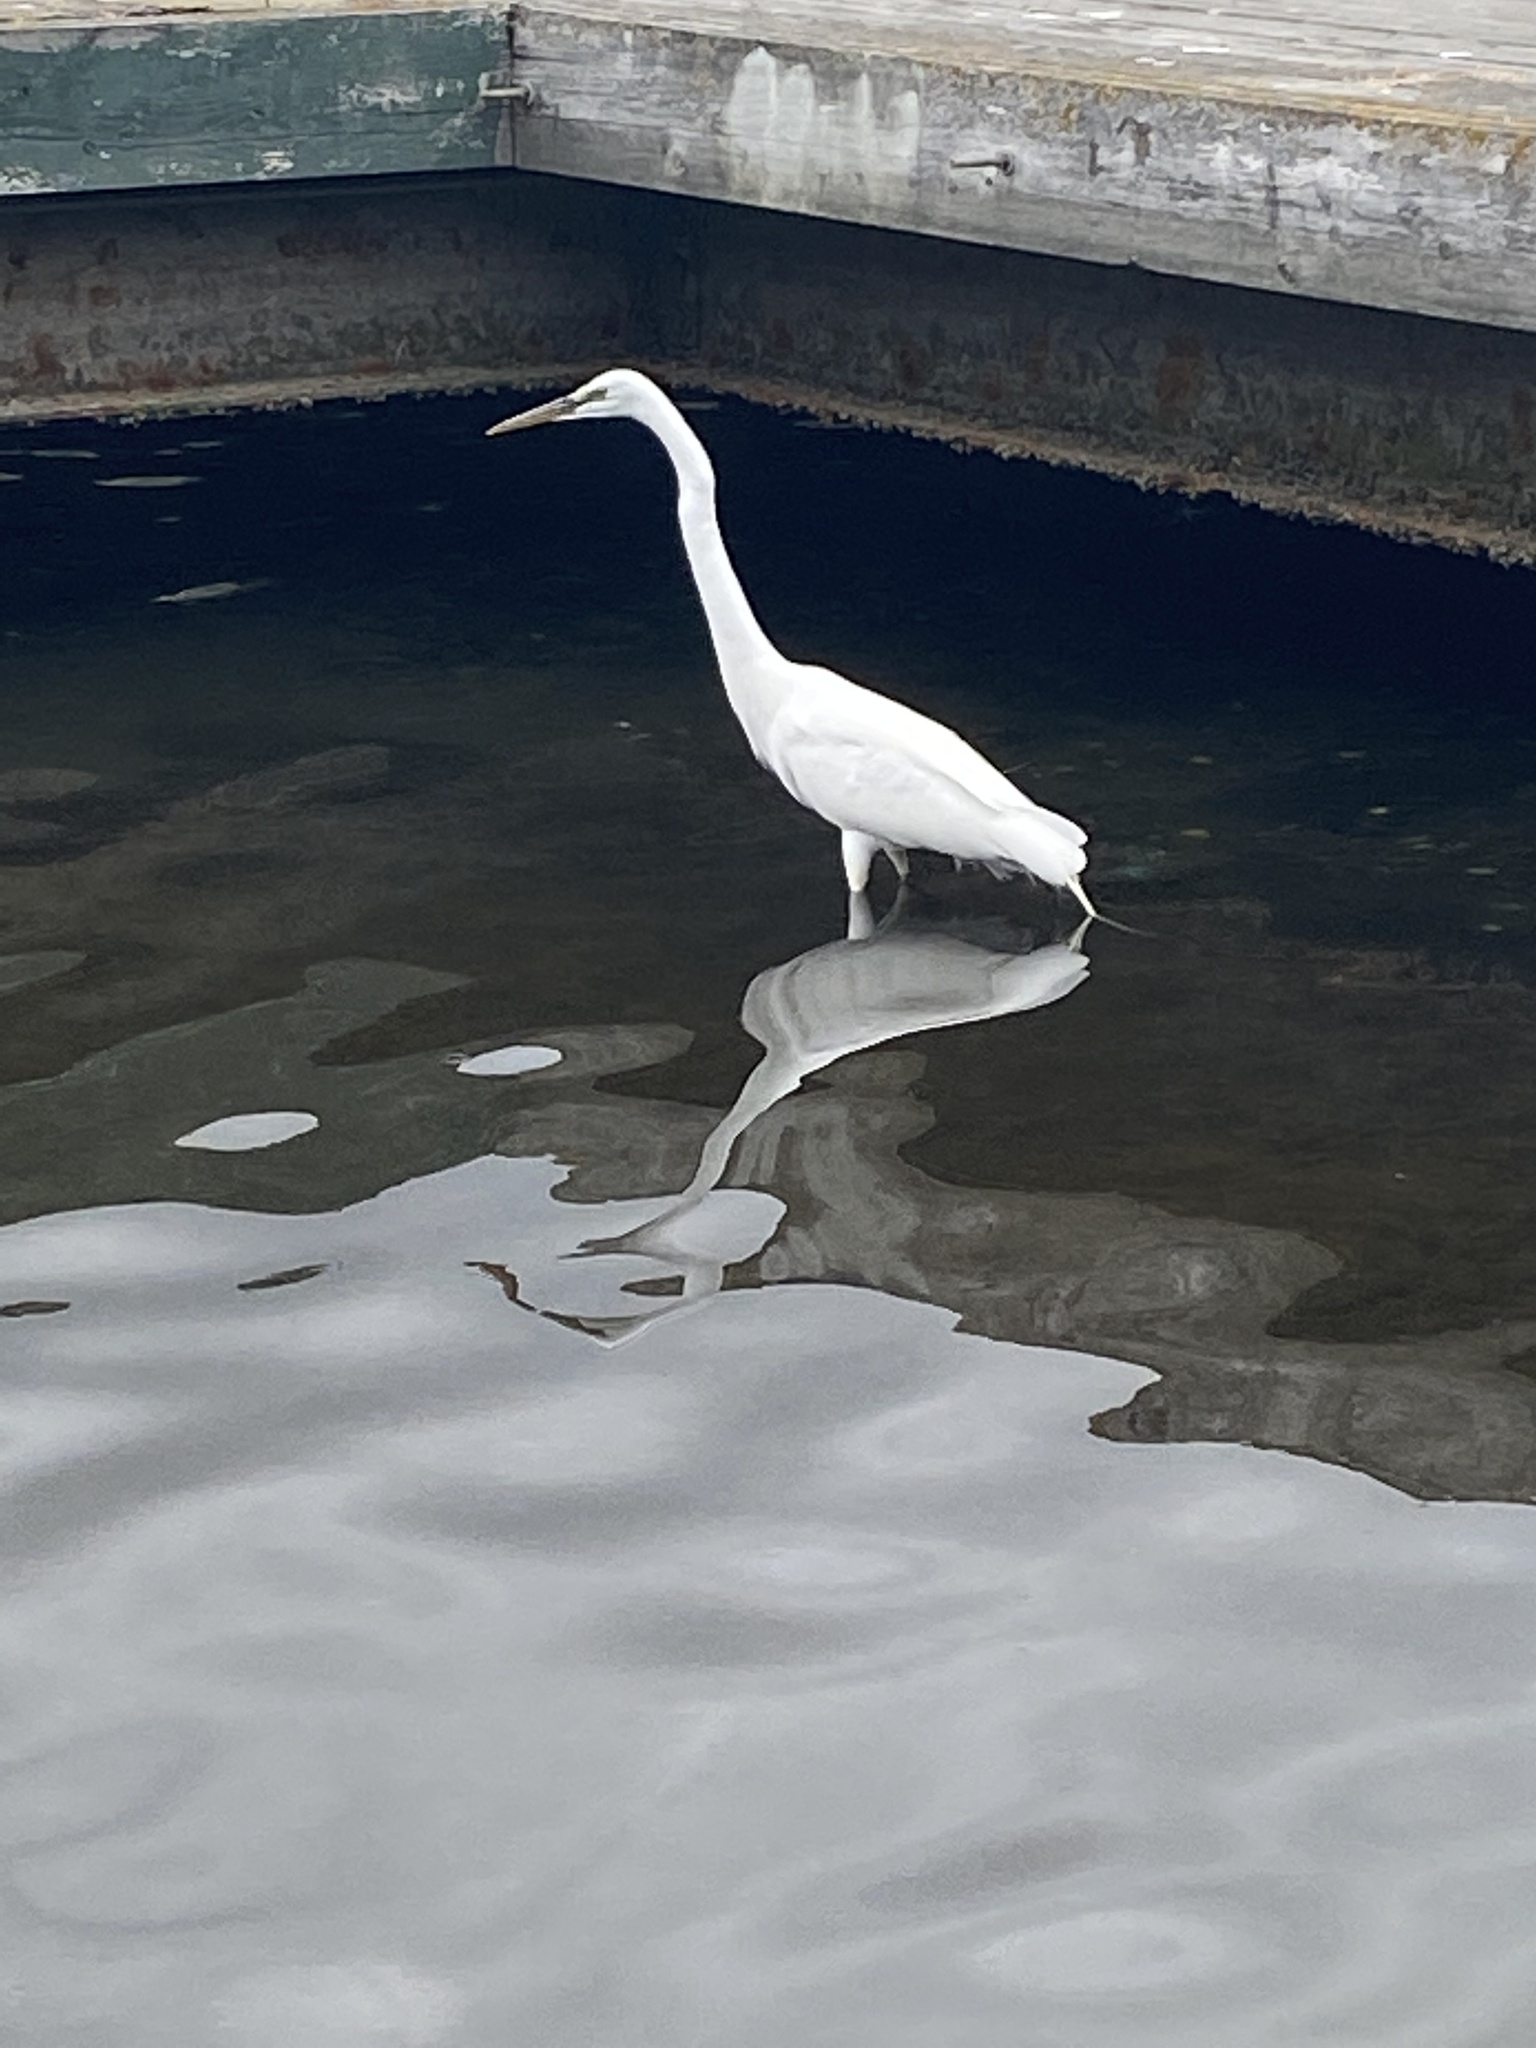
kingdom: Animalia
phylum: Chordata
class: Aves
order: Pelecaniformes
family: Ardeidae
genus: Ardea
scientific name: Ardea alba
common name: Great egret
